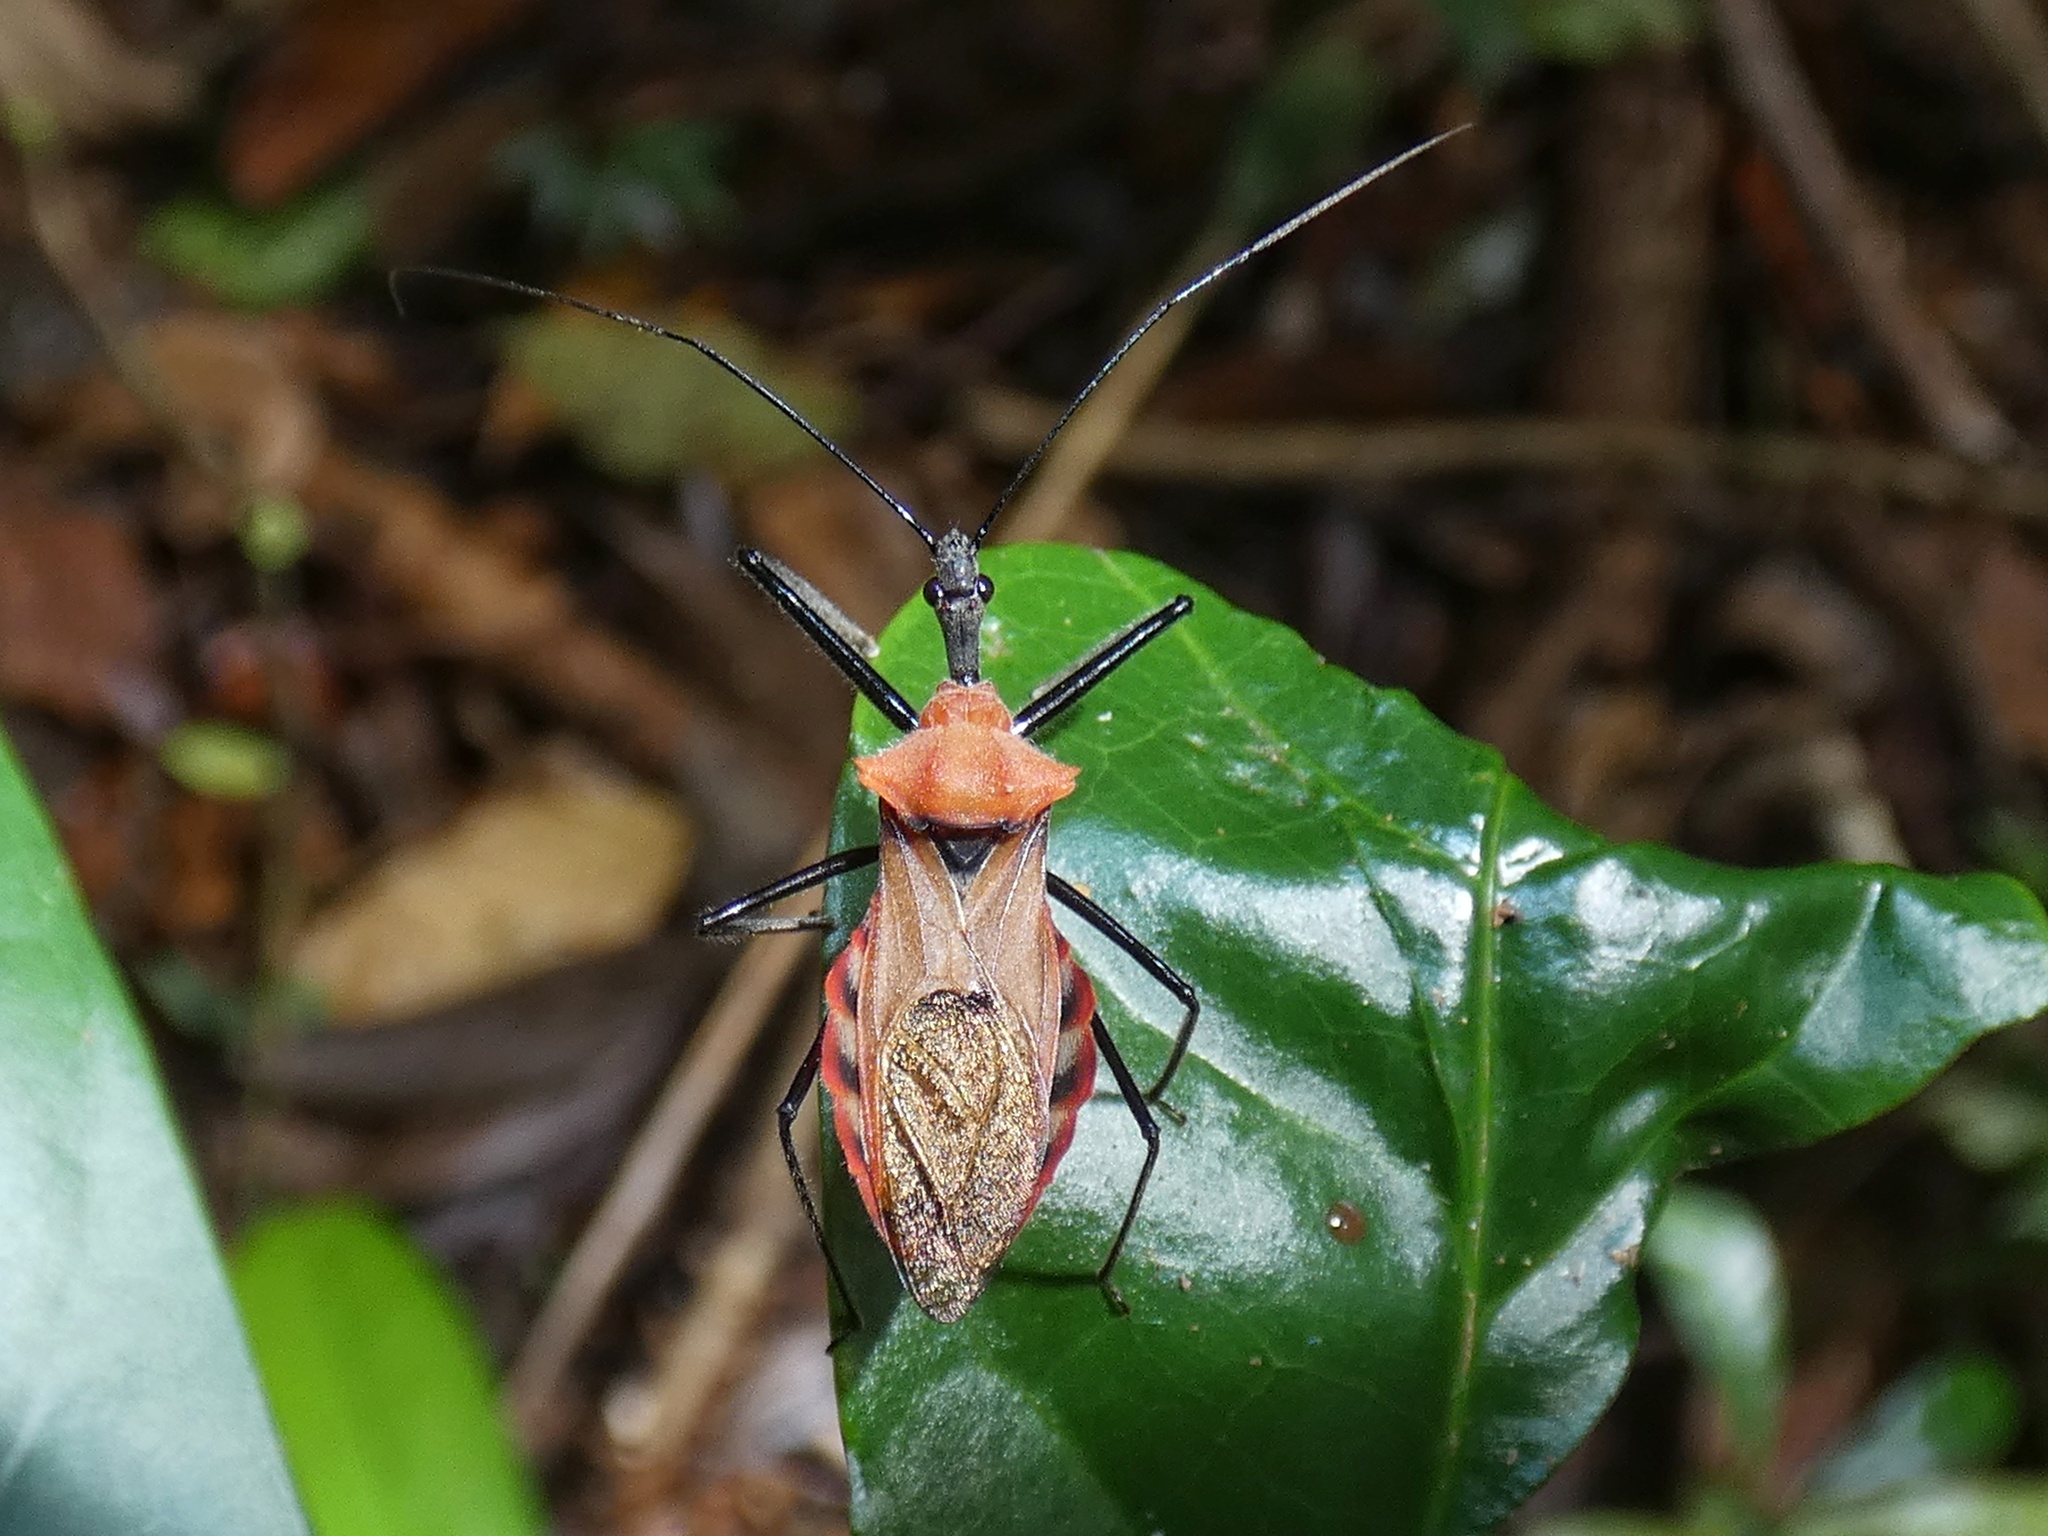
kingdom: Animalia
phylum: Arthropoda
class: Insecta
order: Hemiptera
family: Reduviidae
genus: Montina
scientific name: Montina scutellaris
